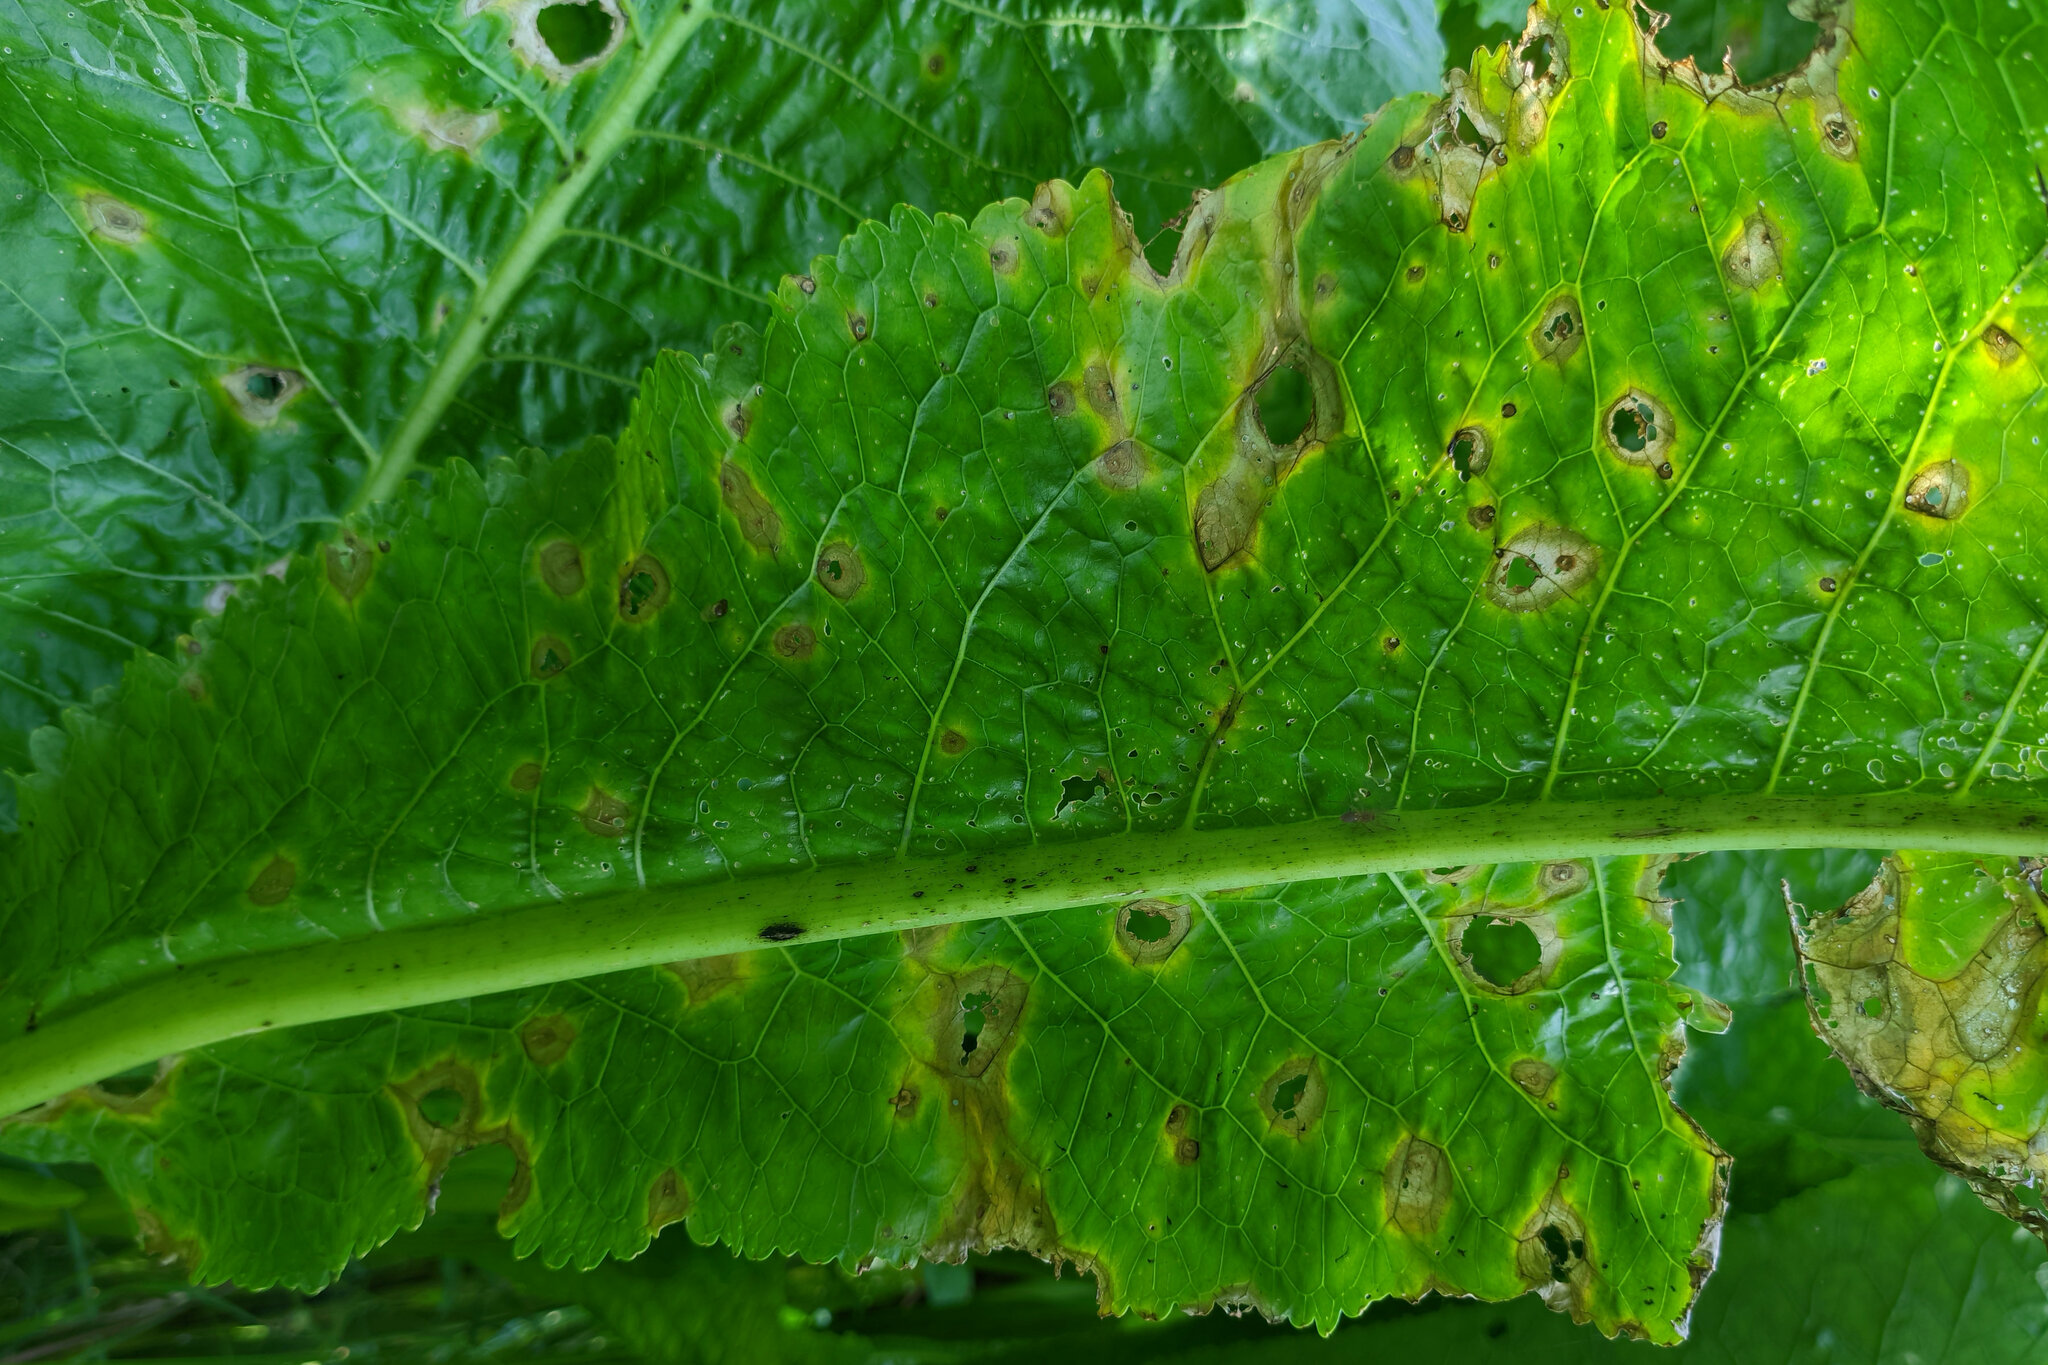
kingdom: Plantae
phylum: Tracheophyta
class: Magnoliopsida
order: Brassicales
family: Brassicaceae
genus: Armoracia
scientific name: Armoracia rusticana
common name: Horseradish
